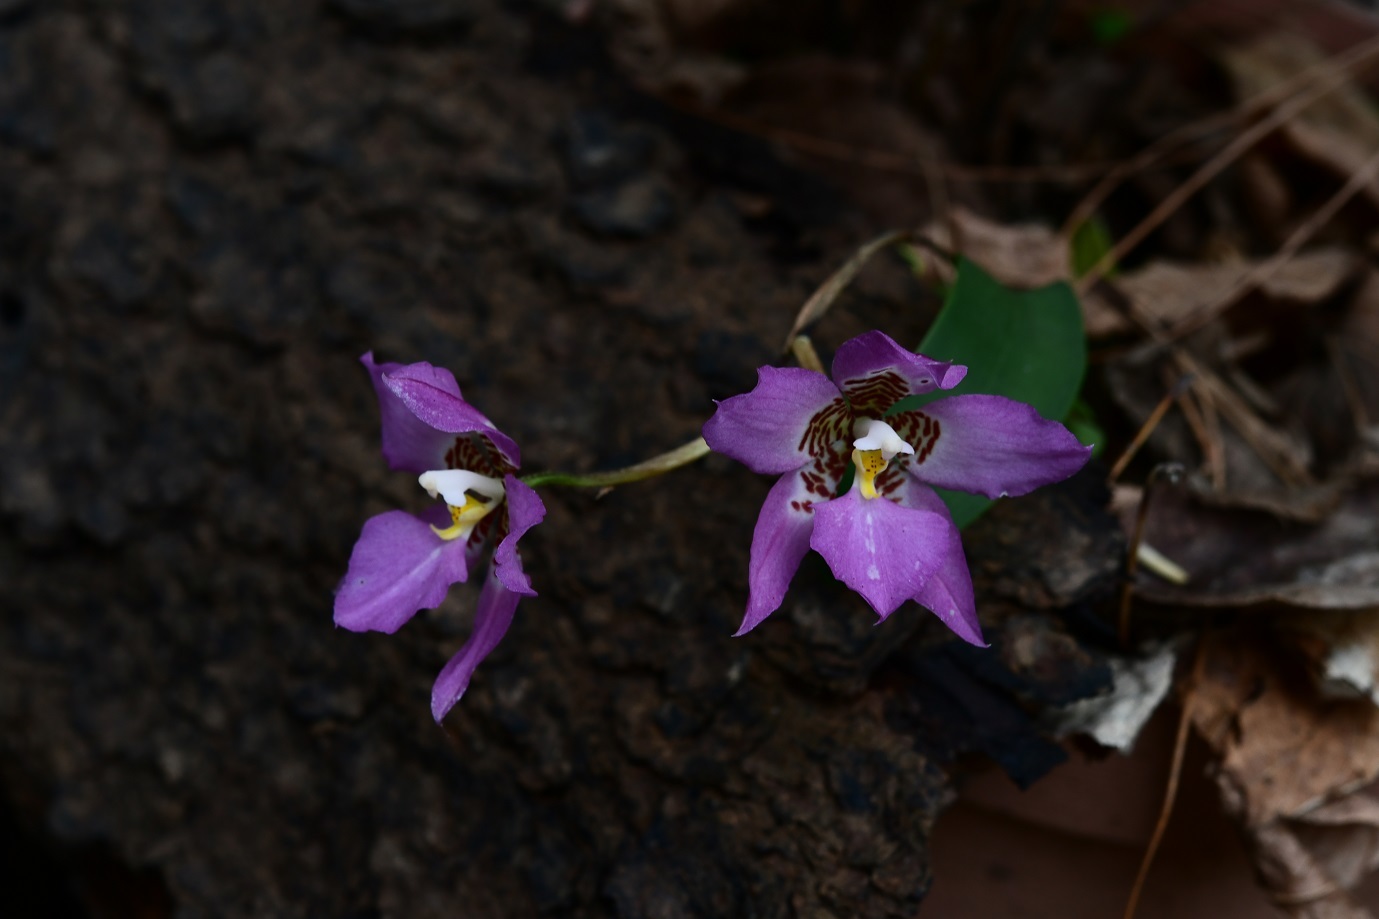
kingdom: Plantae
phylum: Tracheophyta
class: Liliopsida
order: Asparagales
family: Orchidaceae
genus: Rhynchostele
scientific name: Rhynchostele cervantesii
